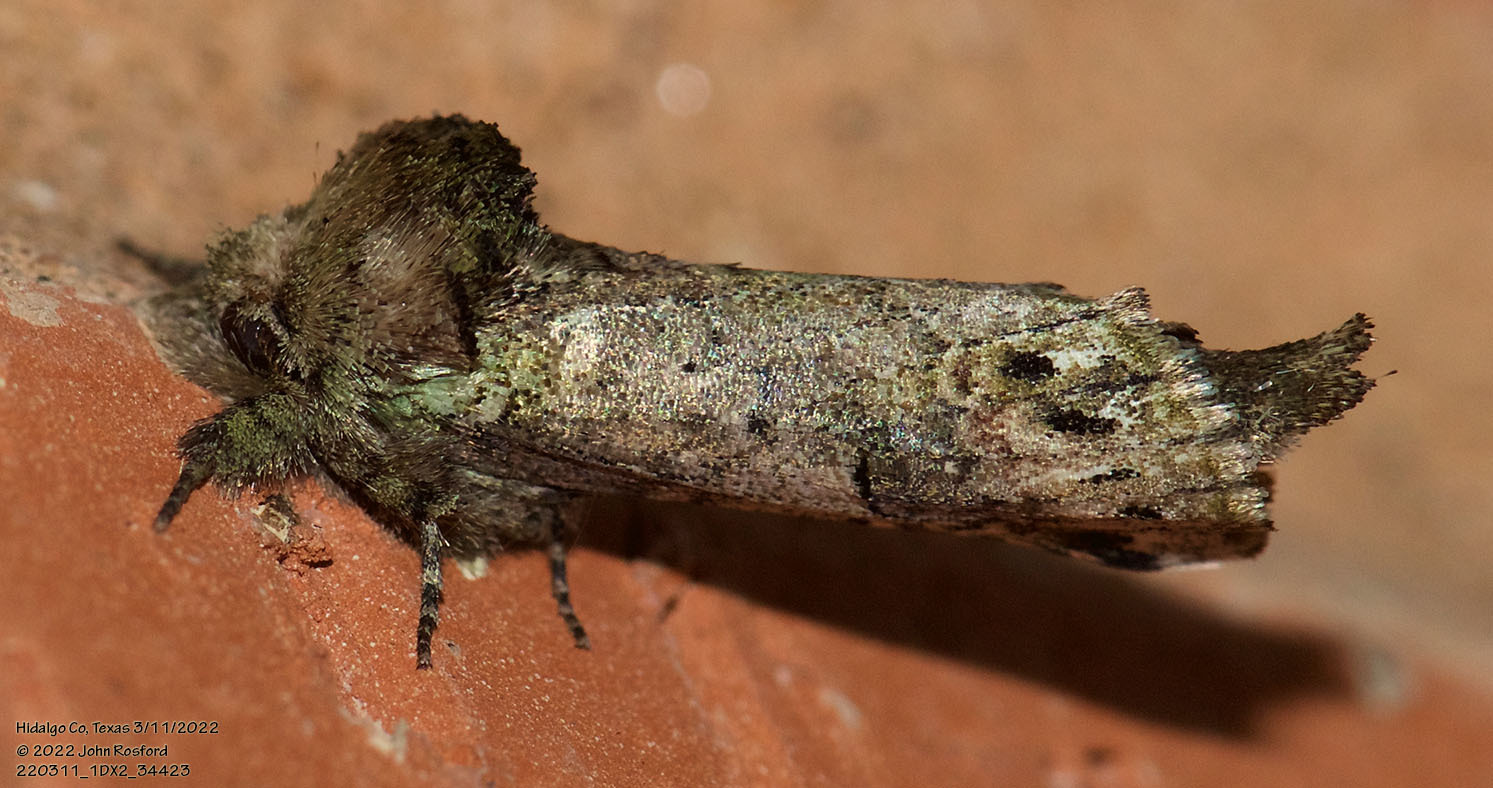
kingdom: Animalia
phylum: Arthropoda
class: Insecta
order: Lepidoptera
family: Notodontidae
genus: Schizura
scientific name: Schizura
